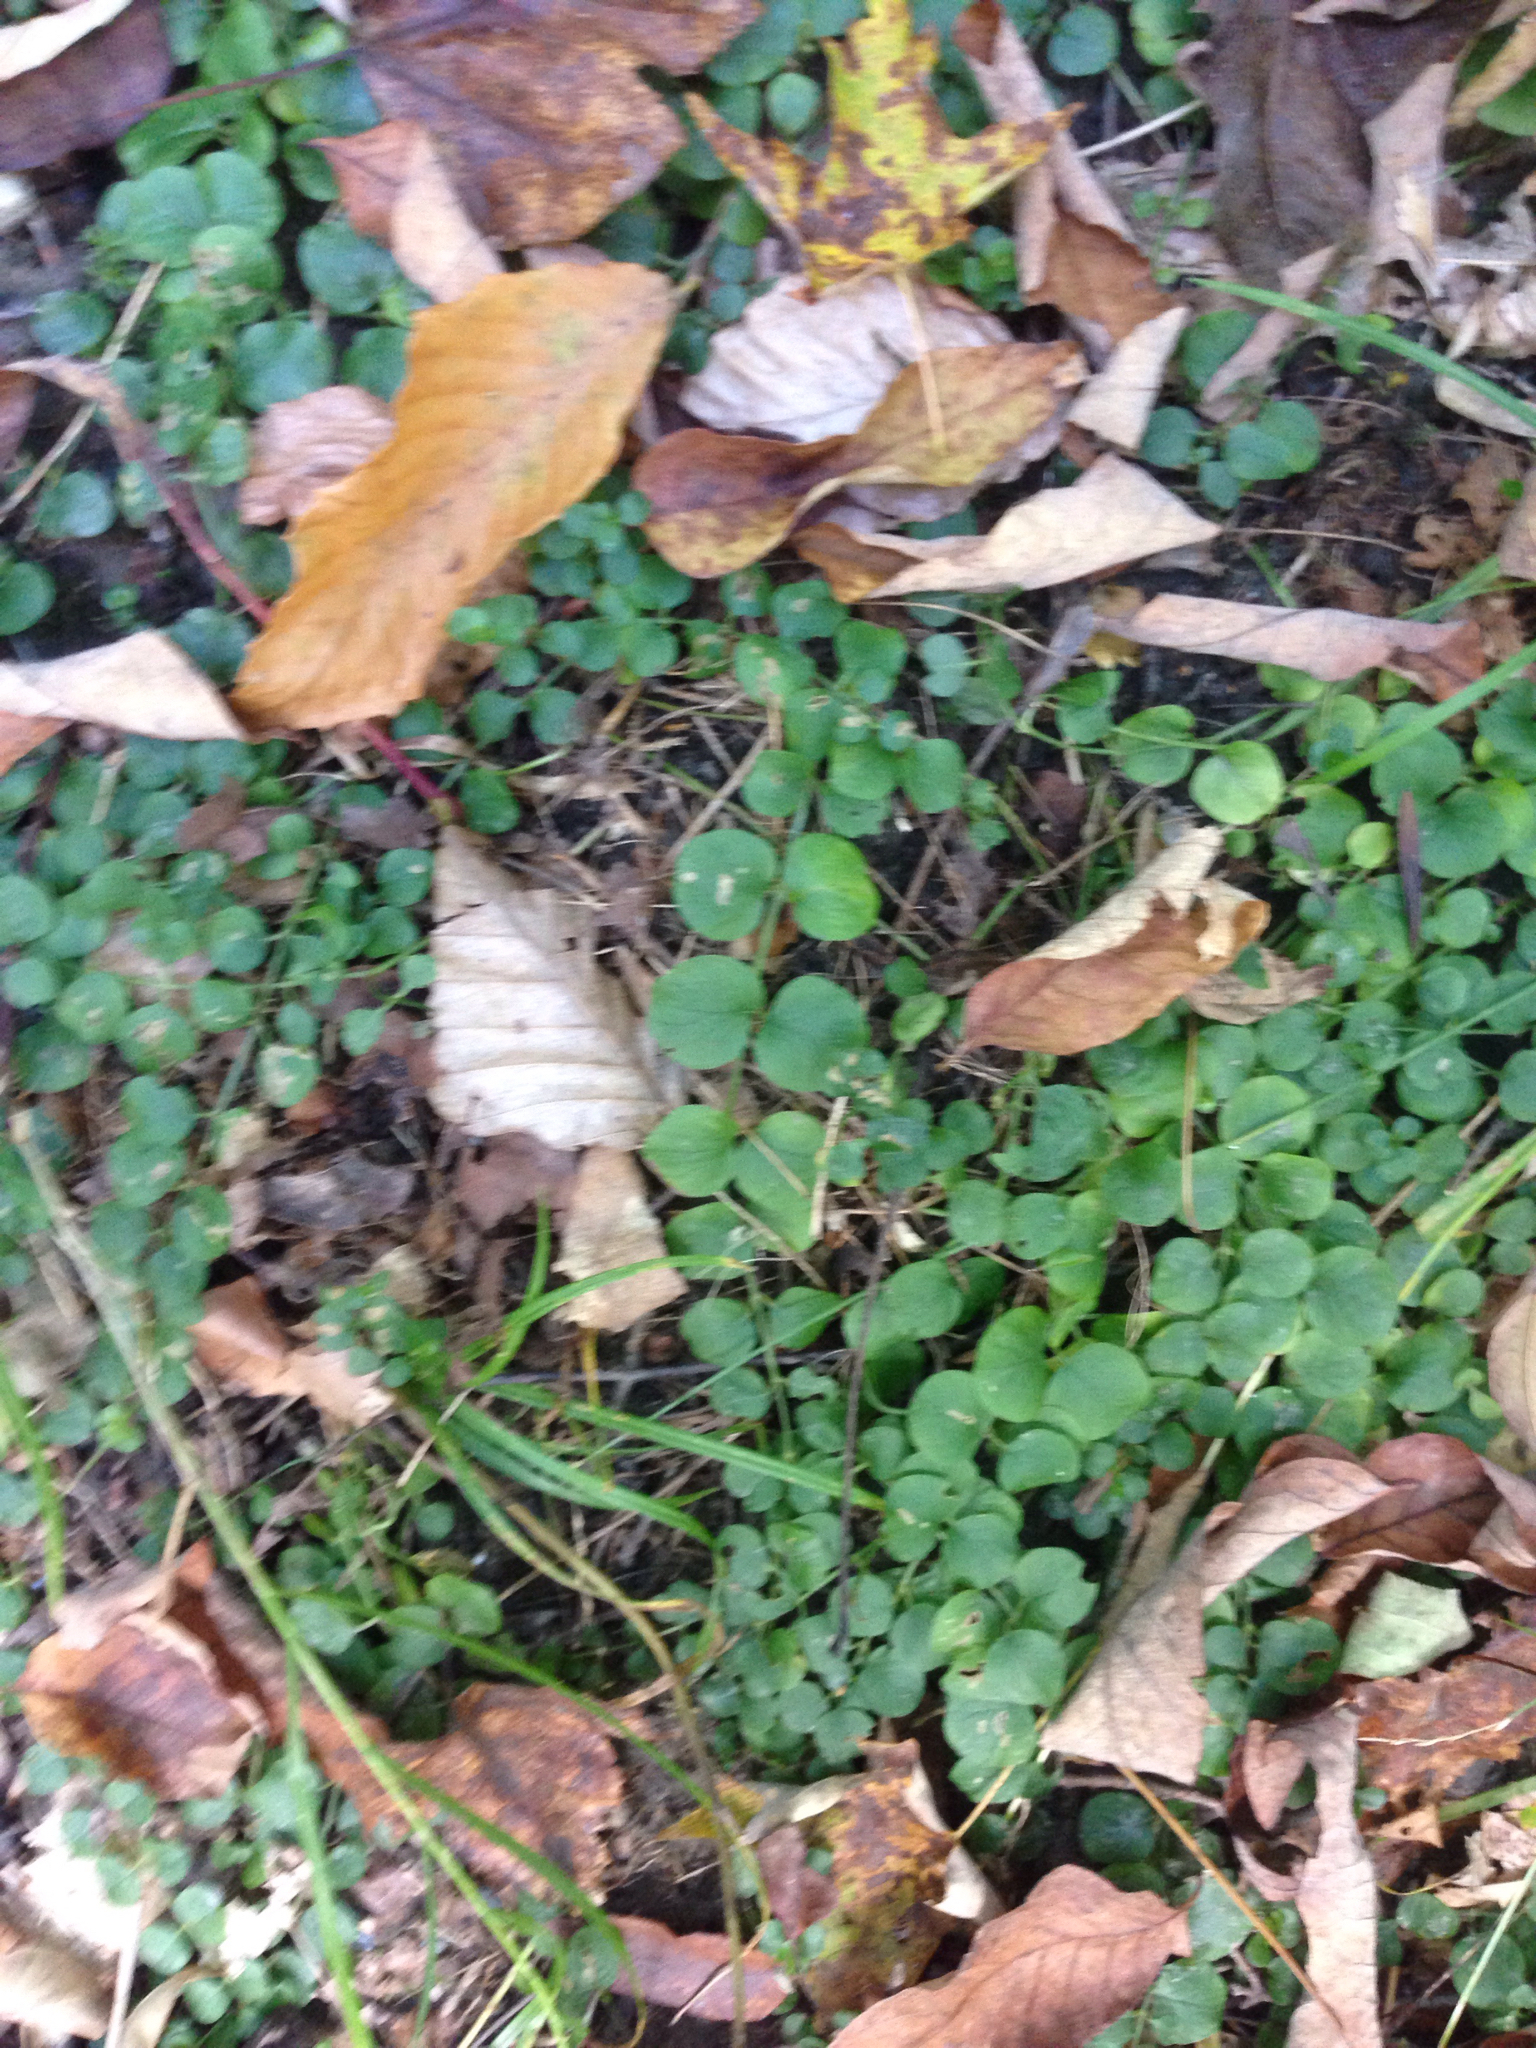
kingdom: Plantae
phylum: Tracheophyta
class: Magnoliopsida
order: Ericales
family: Primulaceae
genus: Lysimachia
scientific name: Lysimachia nummularia
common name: Moneywort
